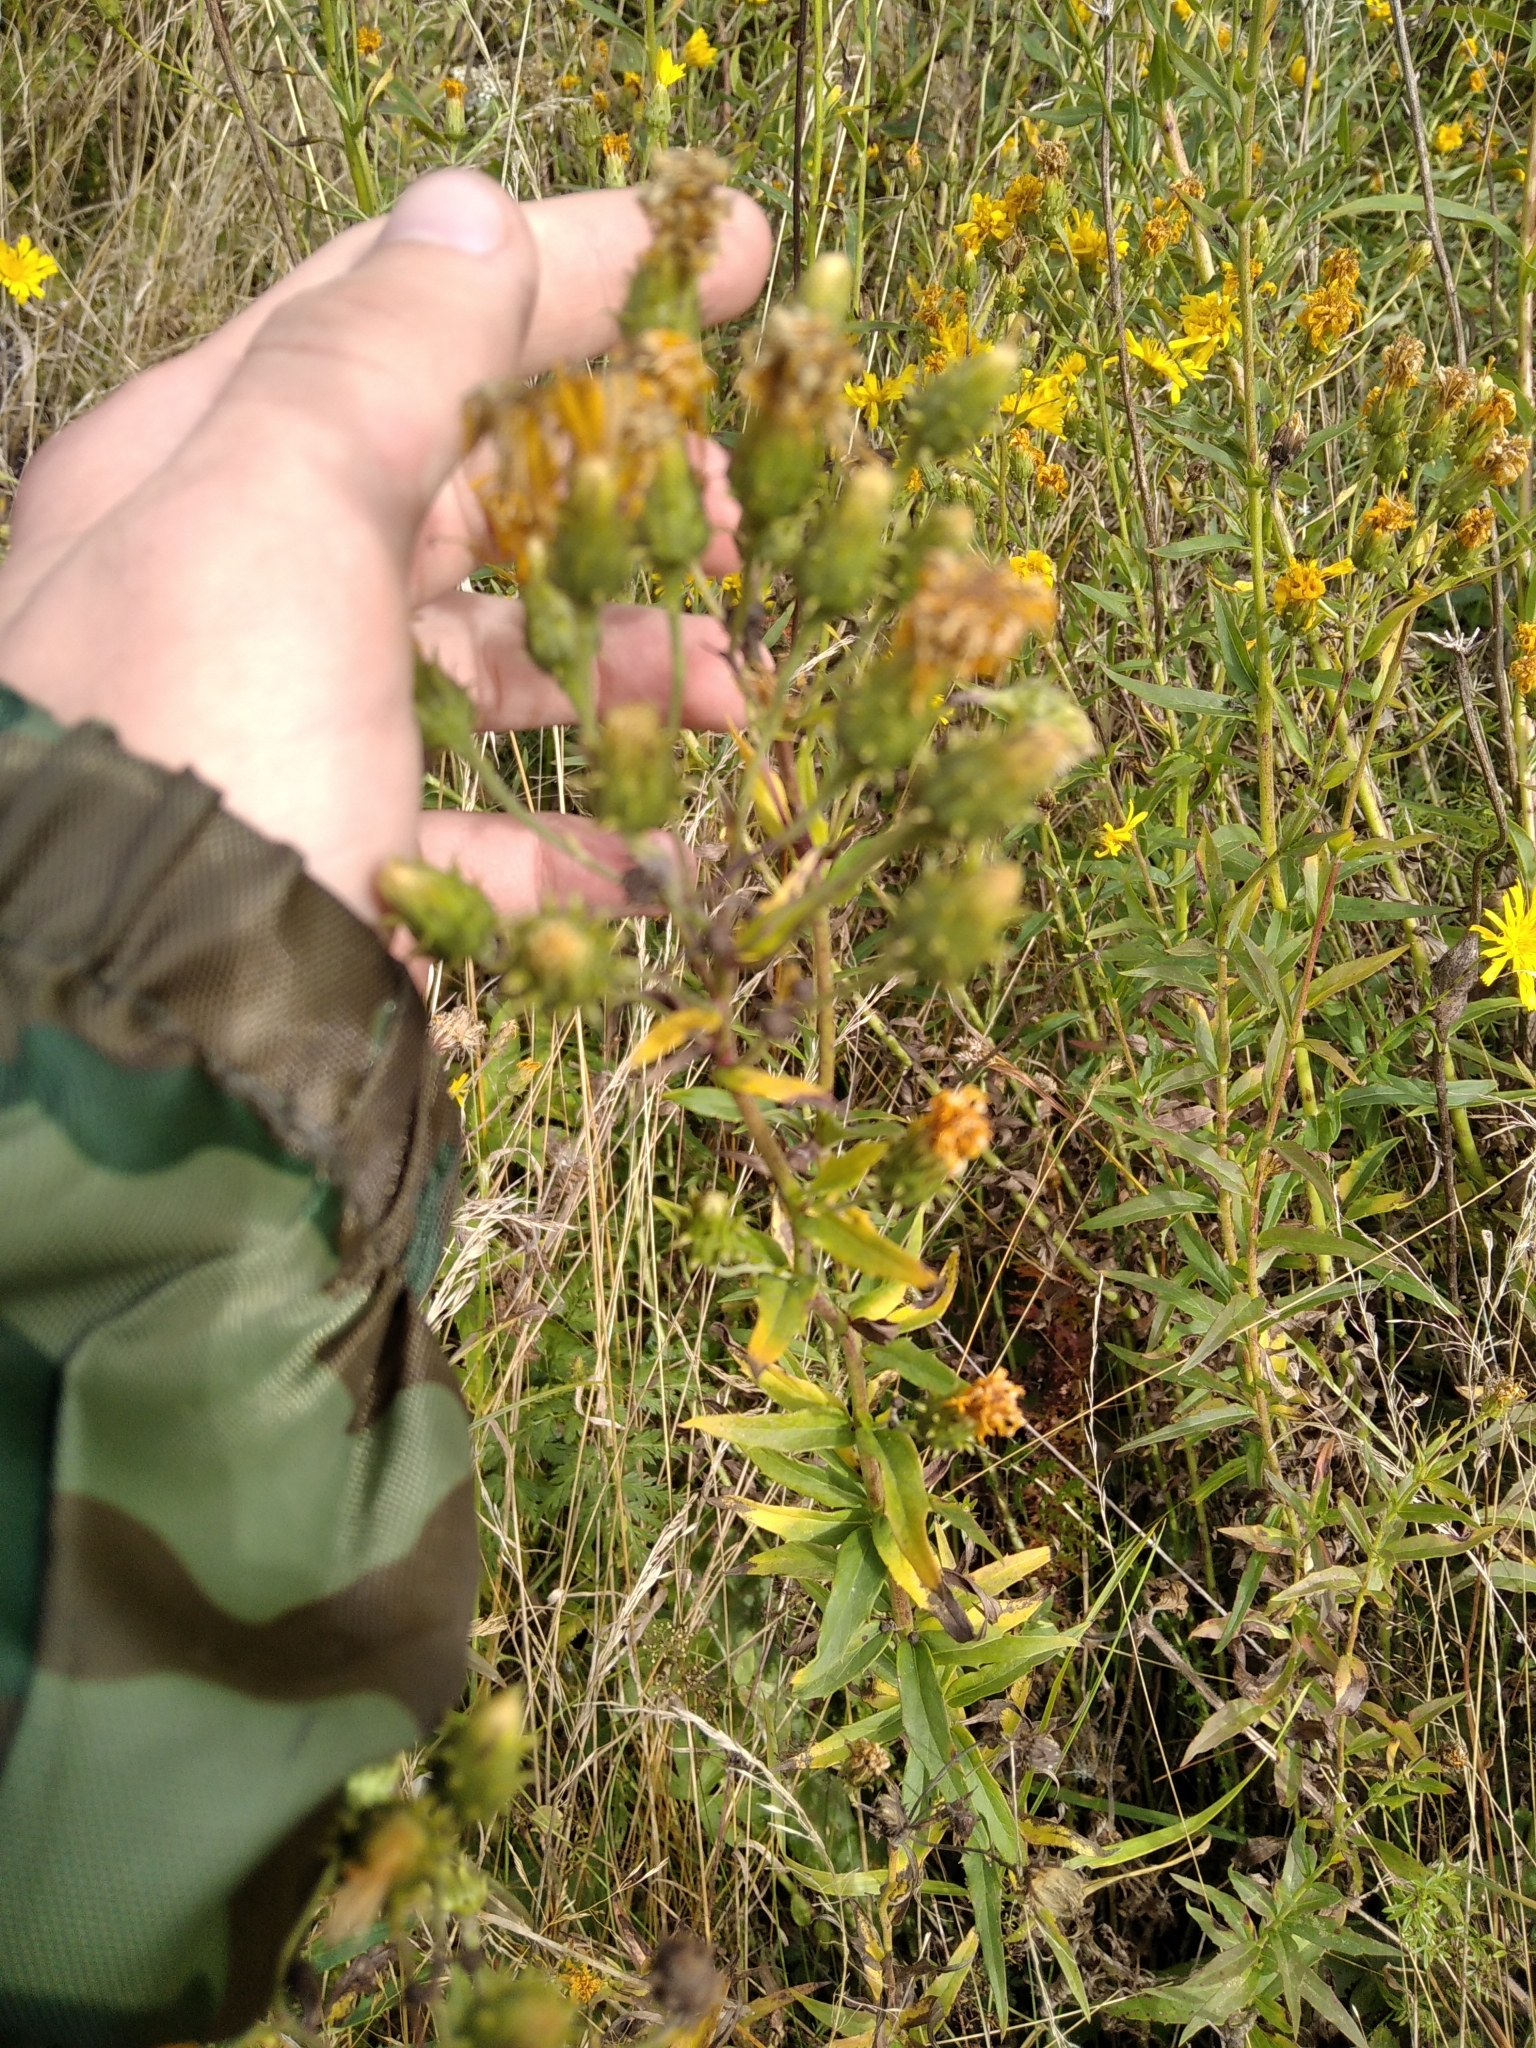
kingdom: Plantae
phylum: Tracheophyta
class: Magnoliopsida
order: Asterales
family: Asteraceae
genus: Hieracium
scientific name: Hieracium umbellatum
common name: Northern hawkweed
